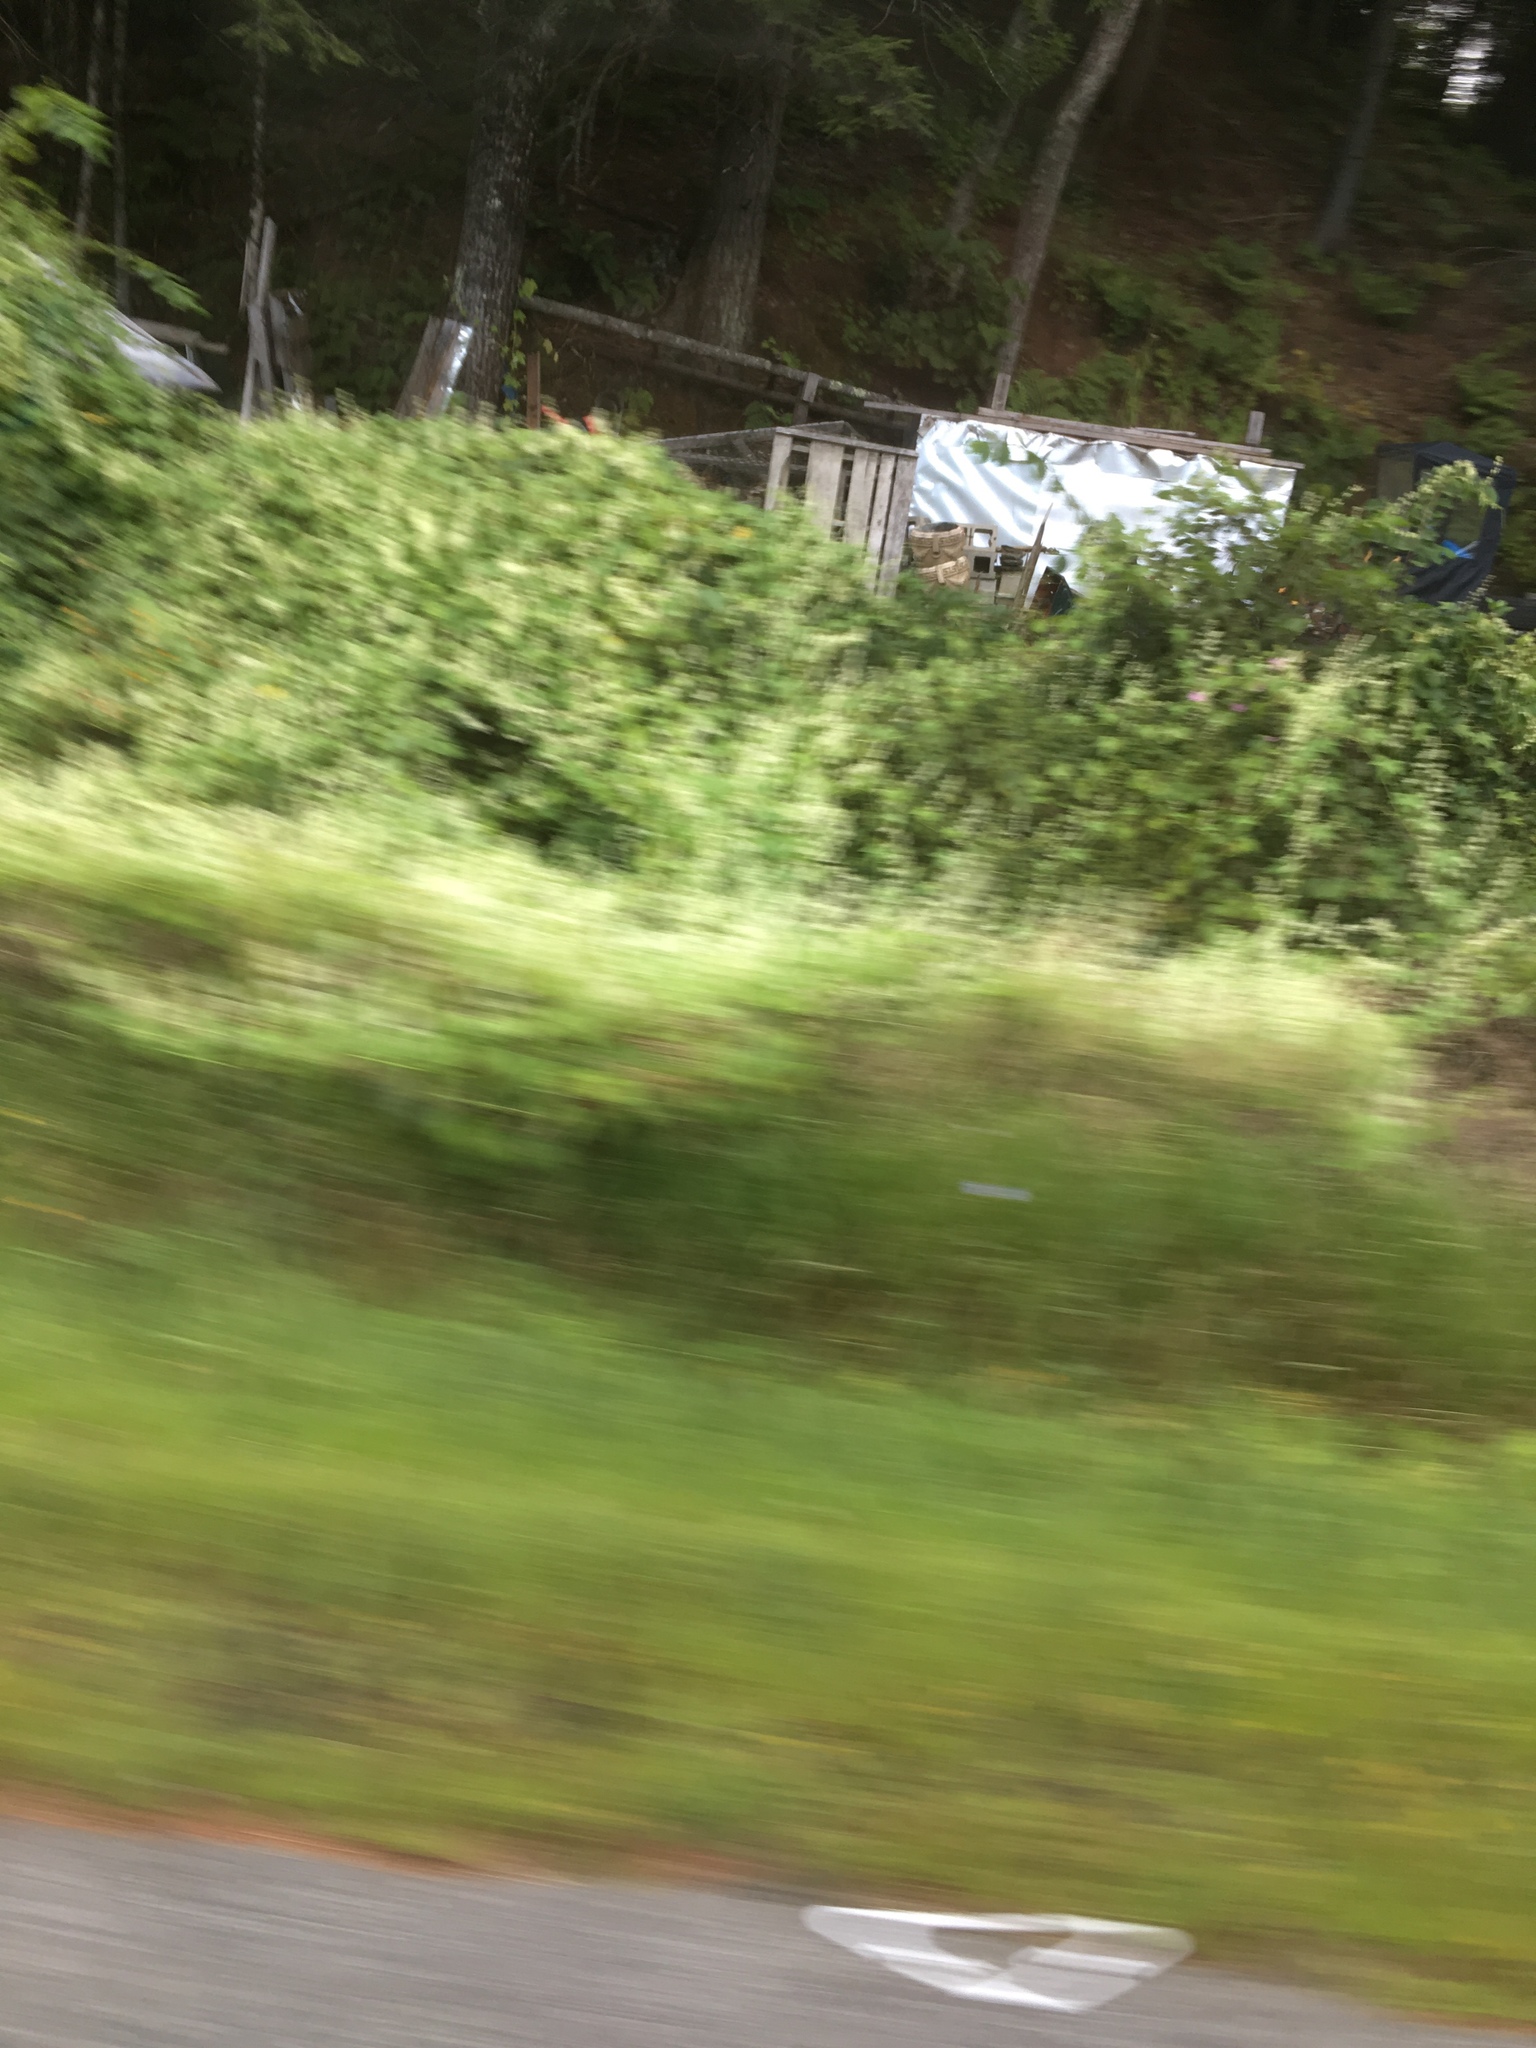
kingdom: Plantae
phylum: Tracheophyta
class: Magnoliopsida
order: Cucurbitales
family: Cucurbitaceae
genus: Echinocystis
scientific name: Echinocystis lobata
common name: Wild cucumber
